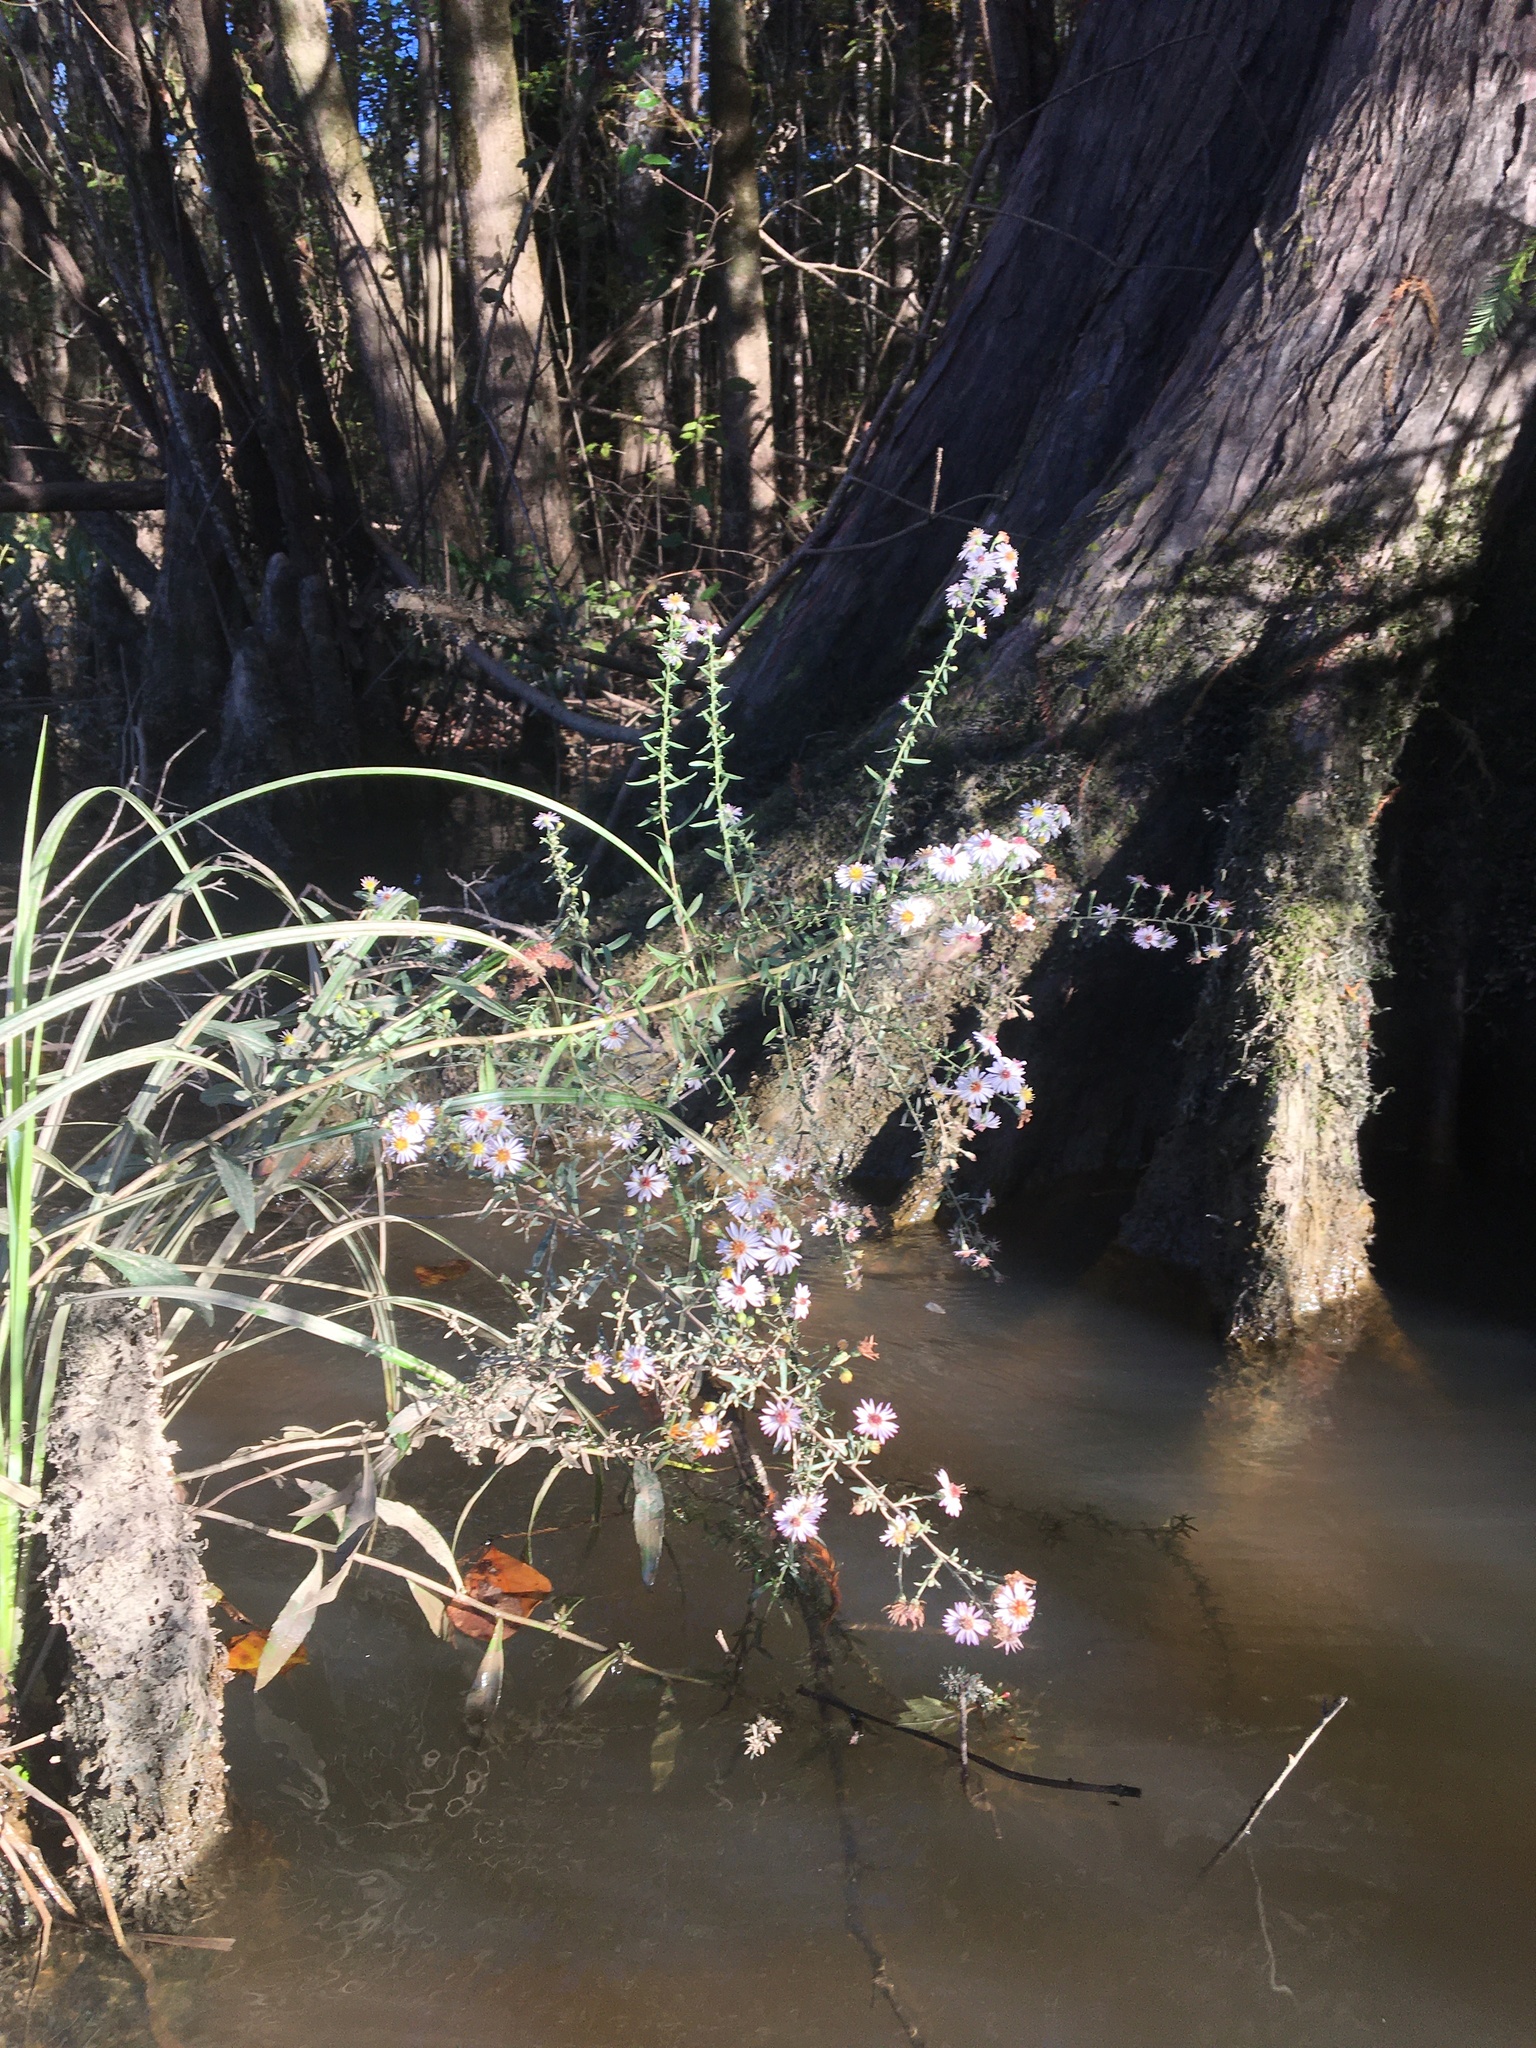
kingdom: Plantae
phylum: Tracheophyta
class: Magnoliopsida
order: Asterales
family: Asteraceae
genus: Symphyotrichum
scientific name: Symphyotrichum dumosum
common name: Bushy aster
